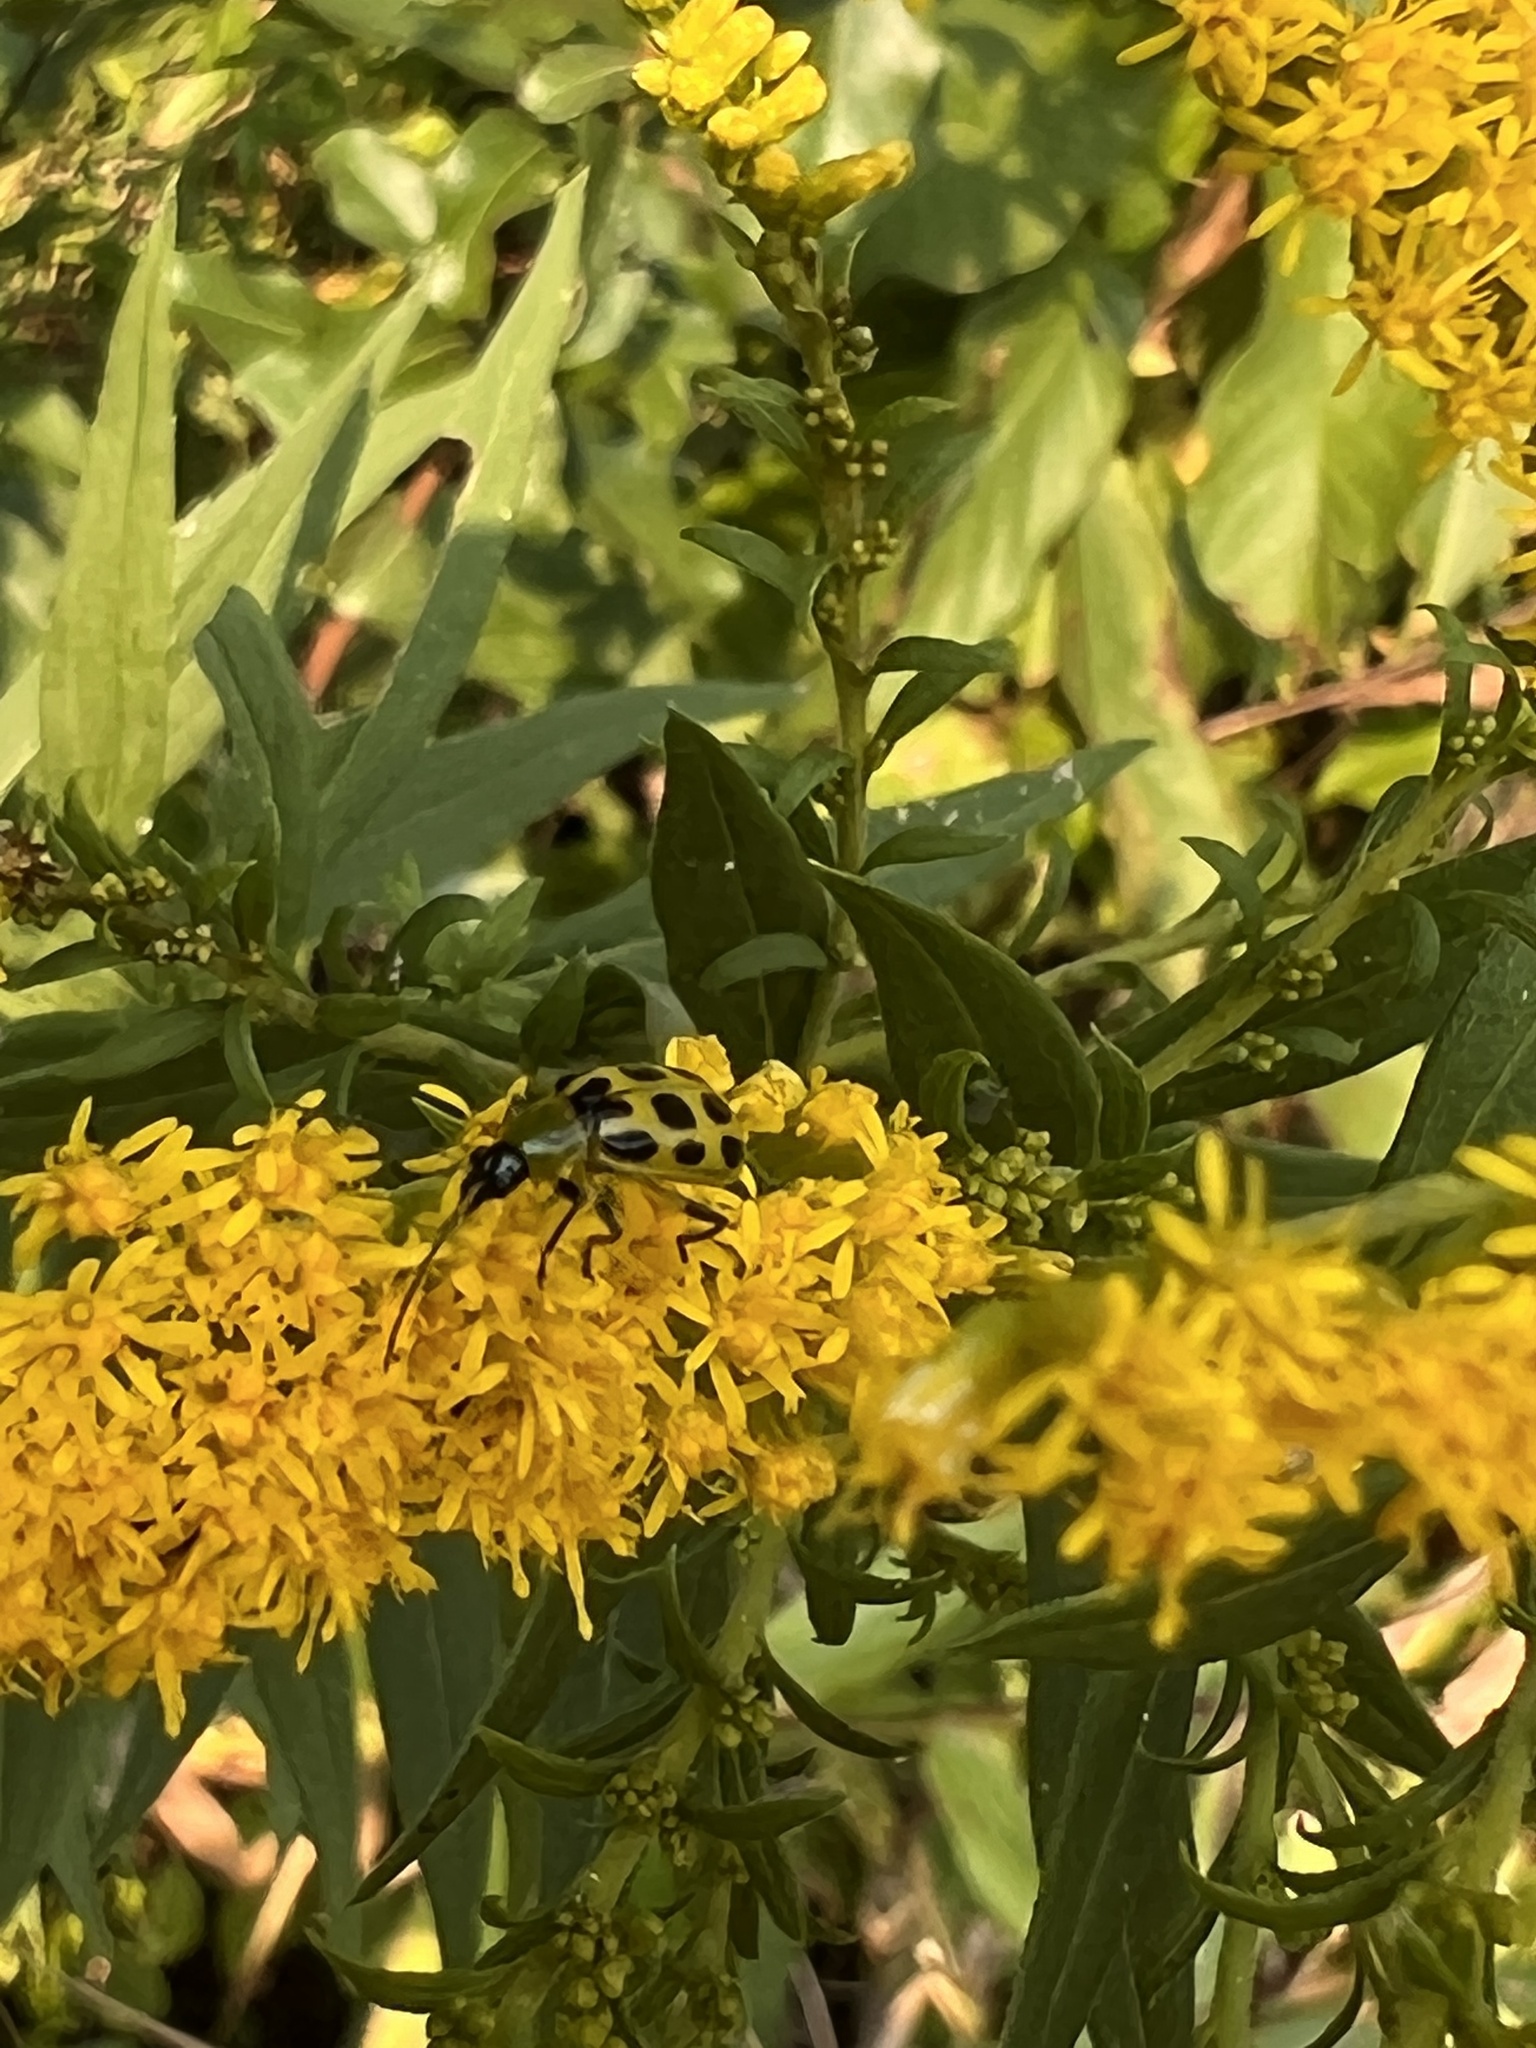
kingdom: Animalia
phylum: Arthropoda
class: Insecta
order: Coleoptera
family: Chrysomelidae
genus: Diabrotica
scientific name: Diabrotica undecimpunctata
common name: Spotted cucumber beetle
